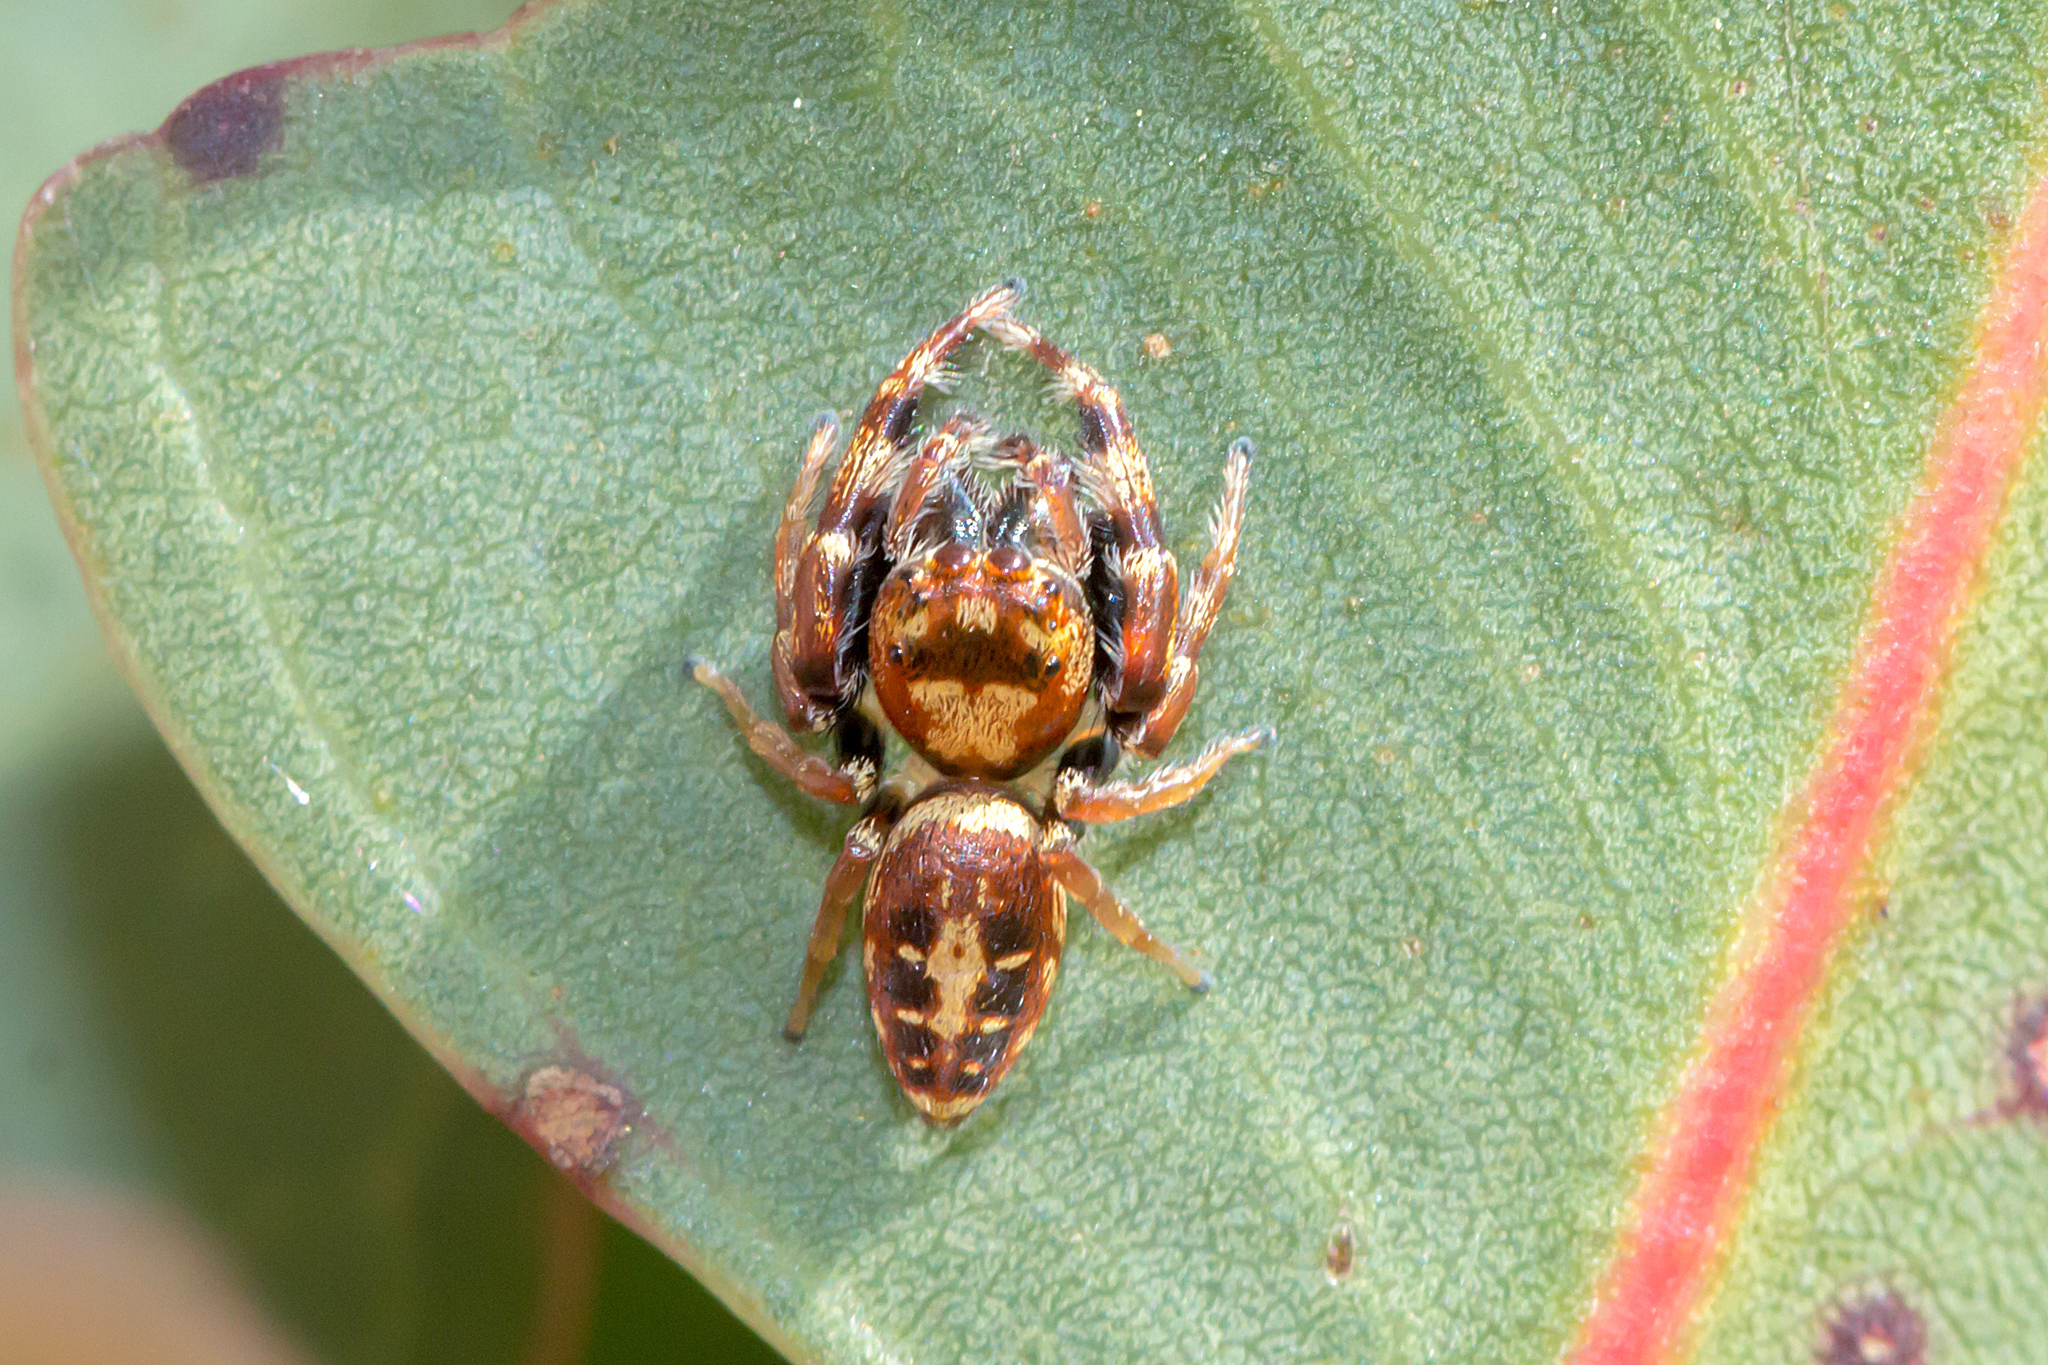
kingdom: Animalia
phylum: Arthropoda
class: Arachnida
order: Araneae
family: Salticidae
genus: Opisthoncus
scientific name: Opisthoncus sexmaculatus
